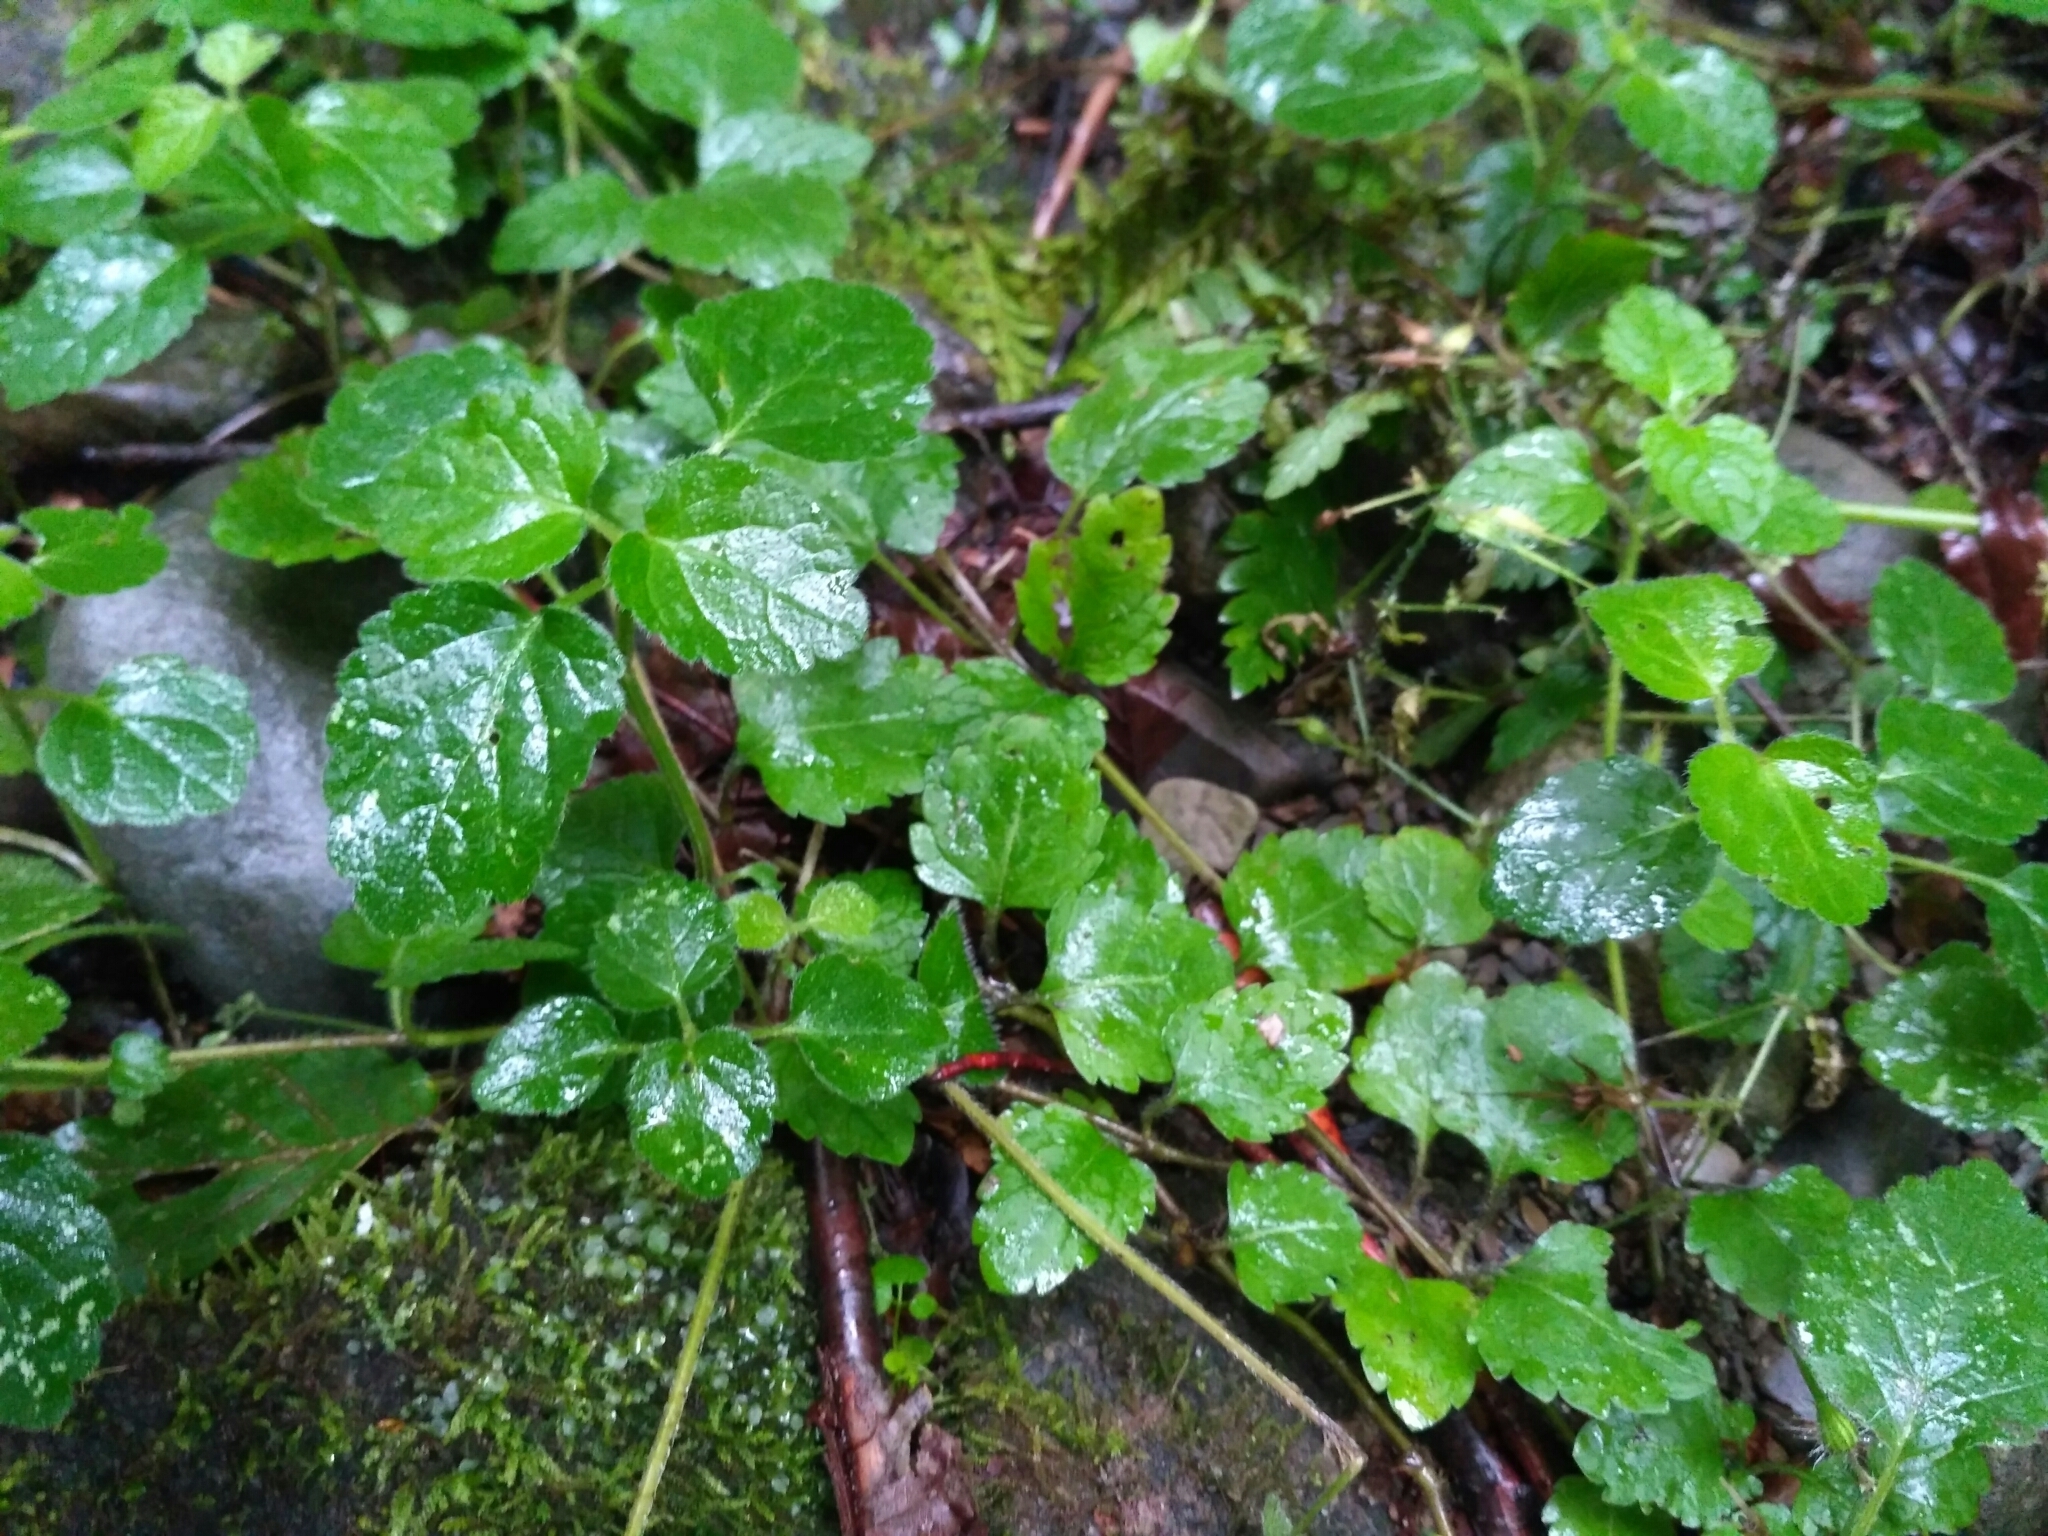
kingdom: Plantae
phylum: Tracheophyta
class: Magnoliopsida
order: Lamiales
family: Lamiaceae
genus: Lamium
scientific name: Lamium galeobdolon
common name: Yellow archangel
